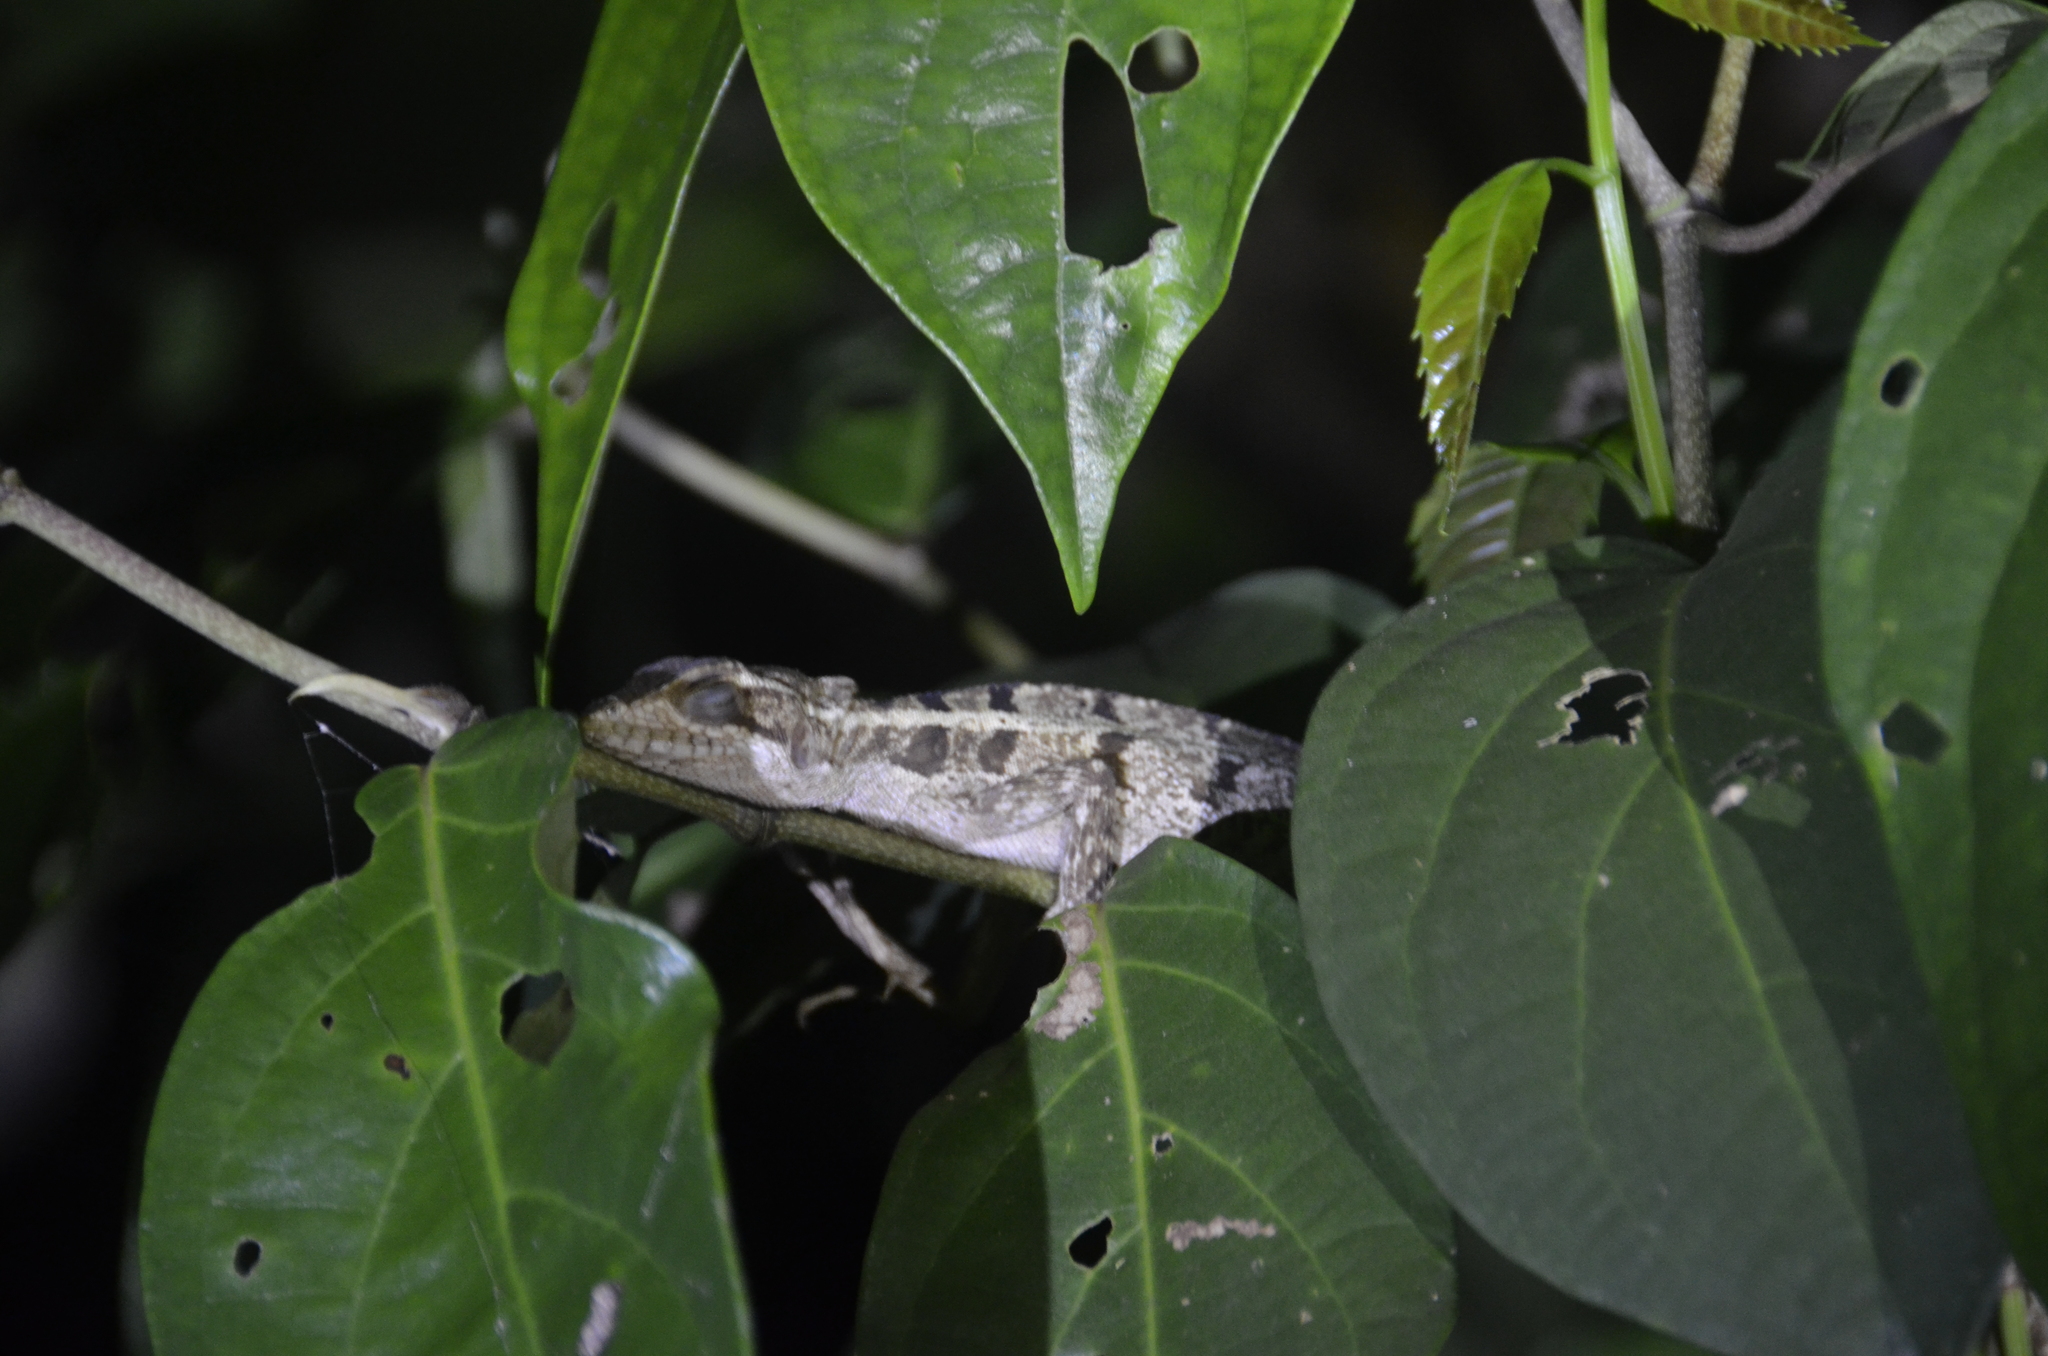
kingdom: Animalia
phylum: Chordata
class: Squamata
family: Corytophanidae
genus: Basiliscus
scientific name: Basiliscus vittatus
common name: Brown basilisk
